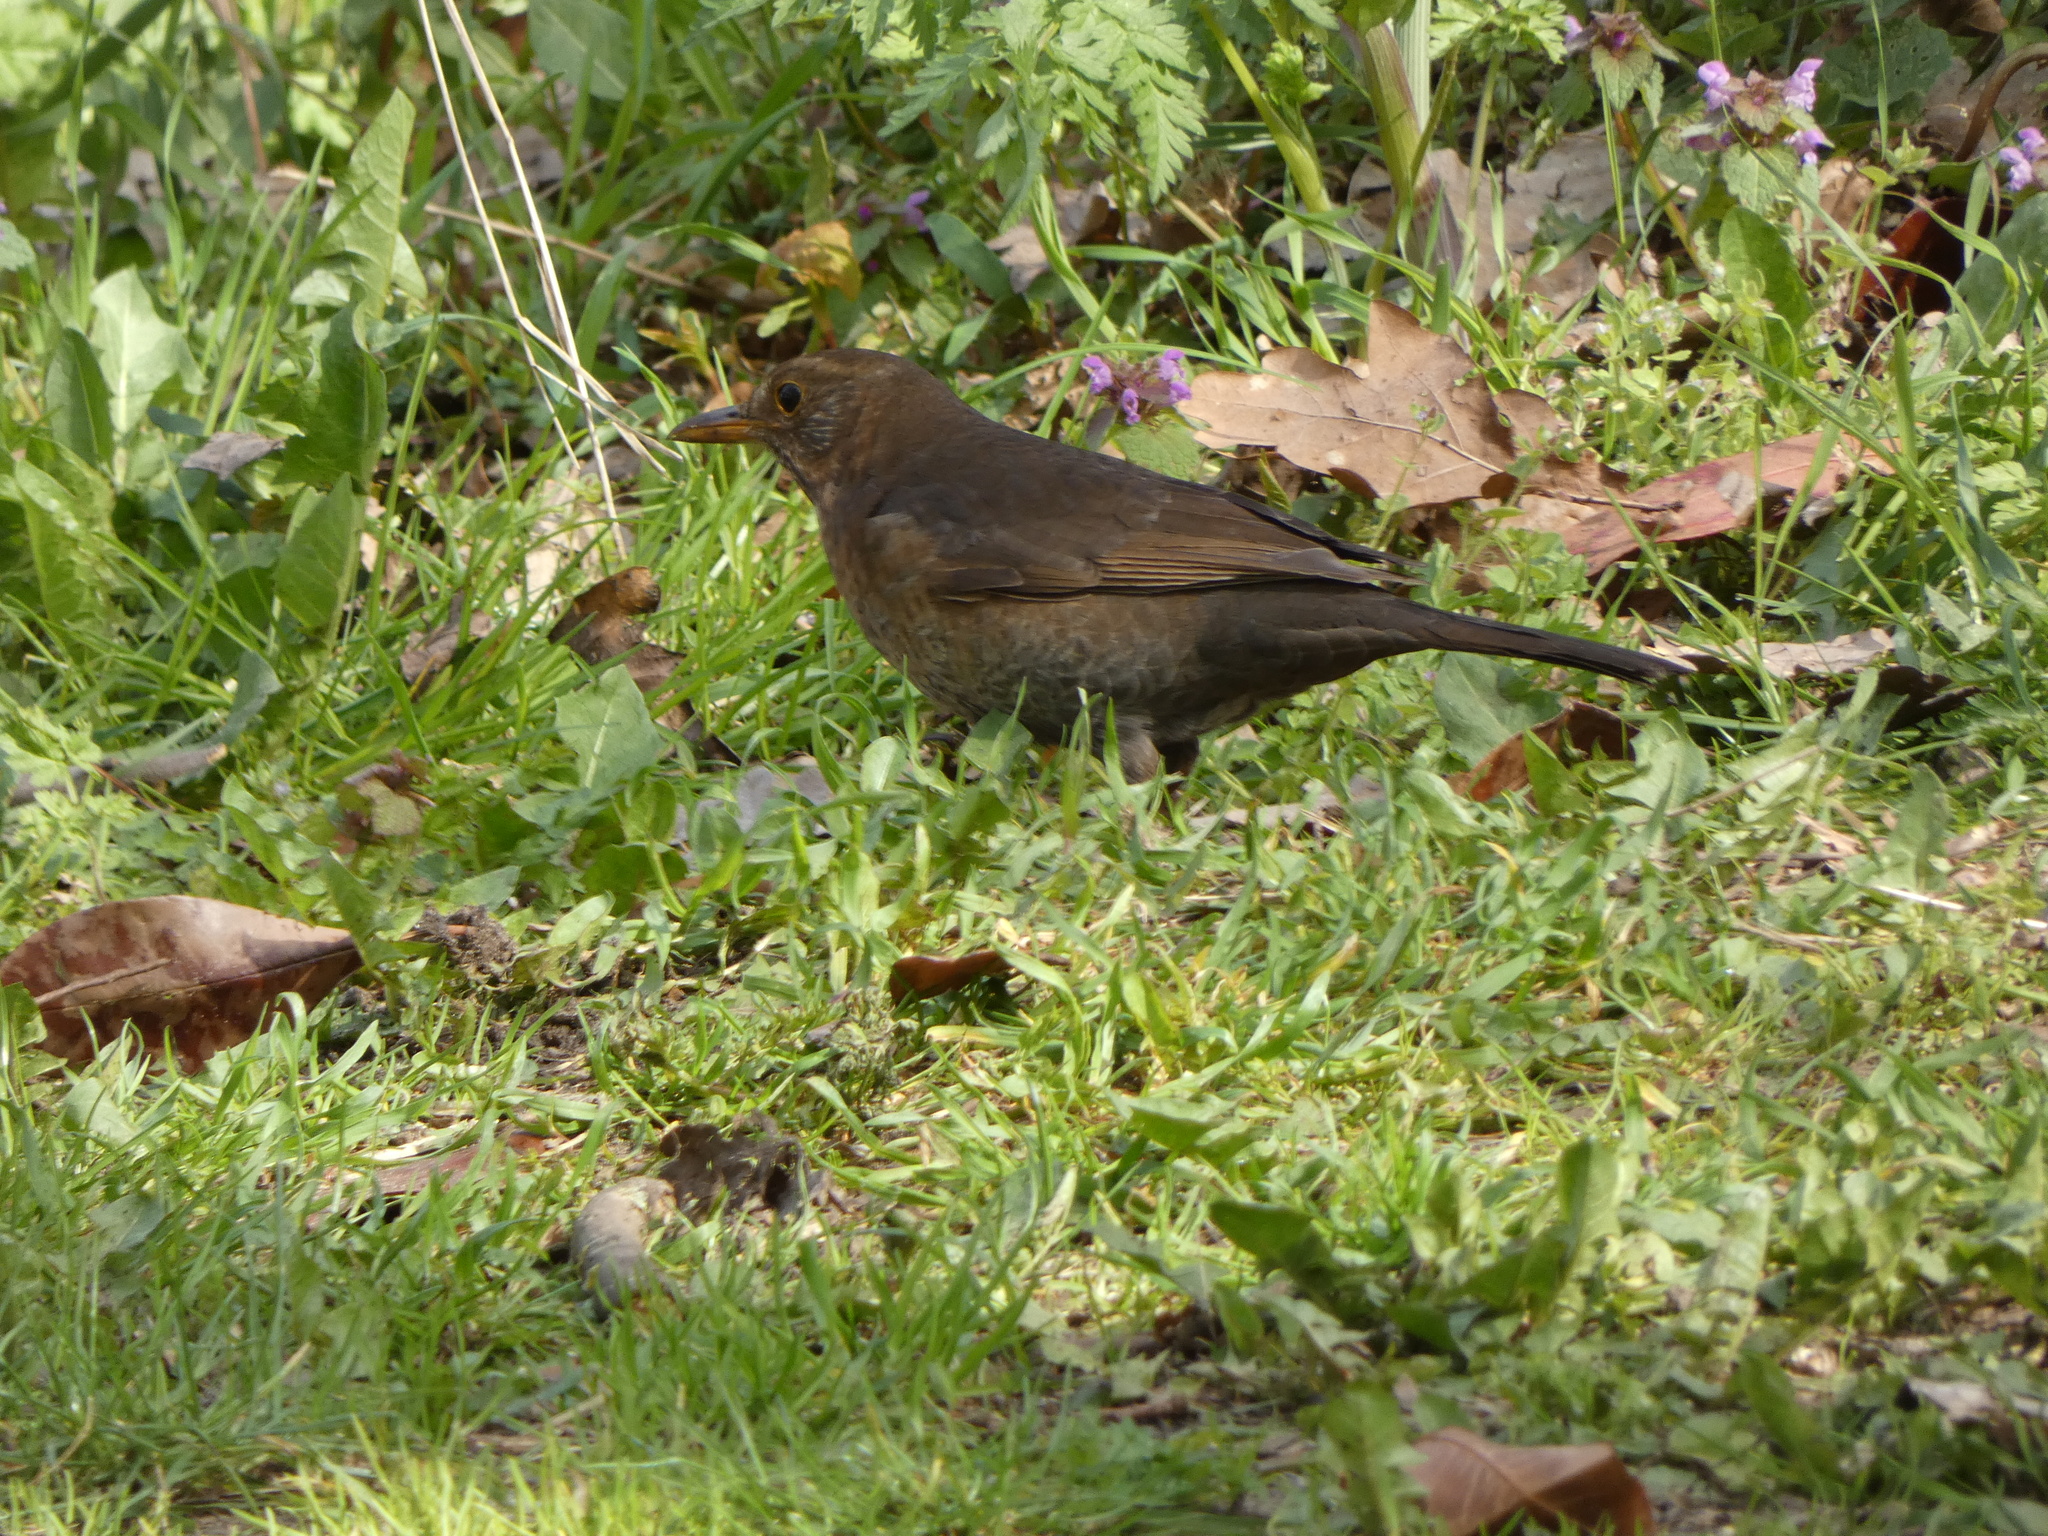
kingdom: Animalia
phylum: Chordata
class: Aves
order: Passeriformes
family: Turdidae
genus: Turdus
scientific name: Turdus merula
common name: Common blackbird
